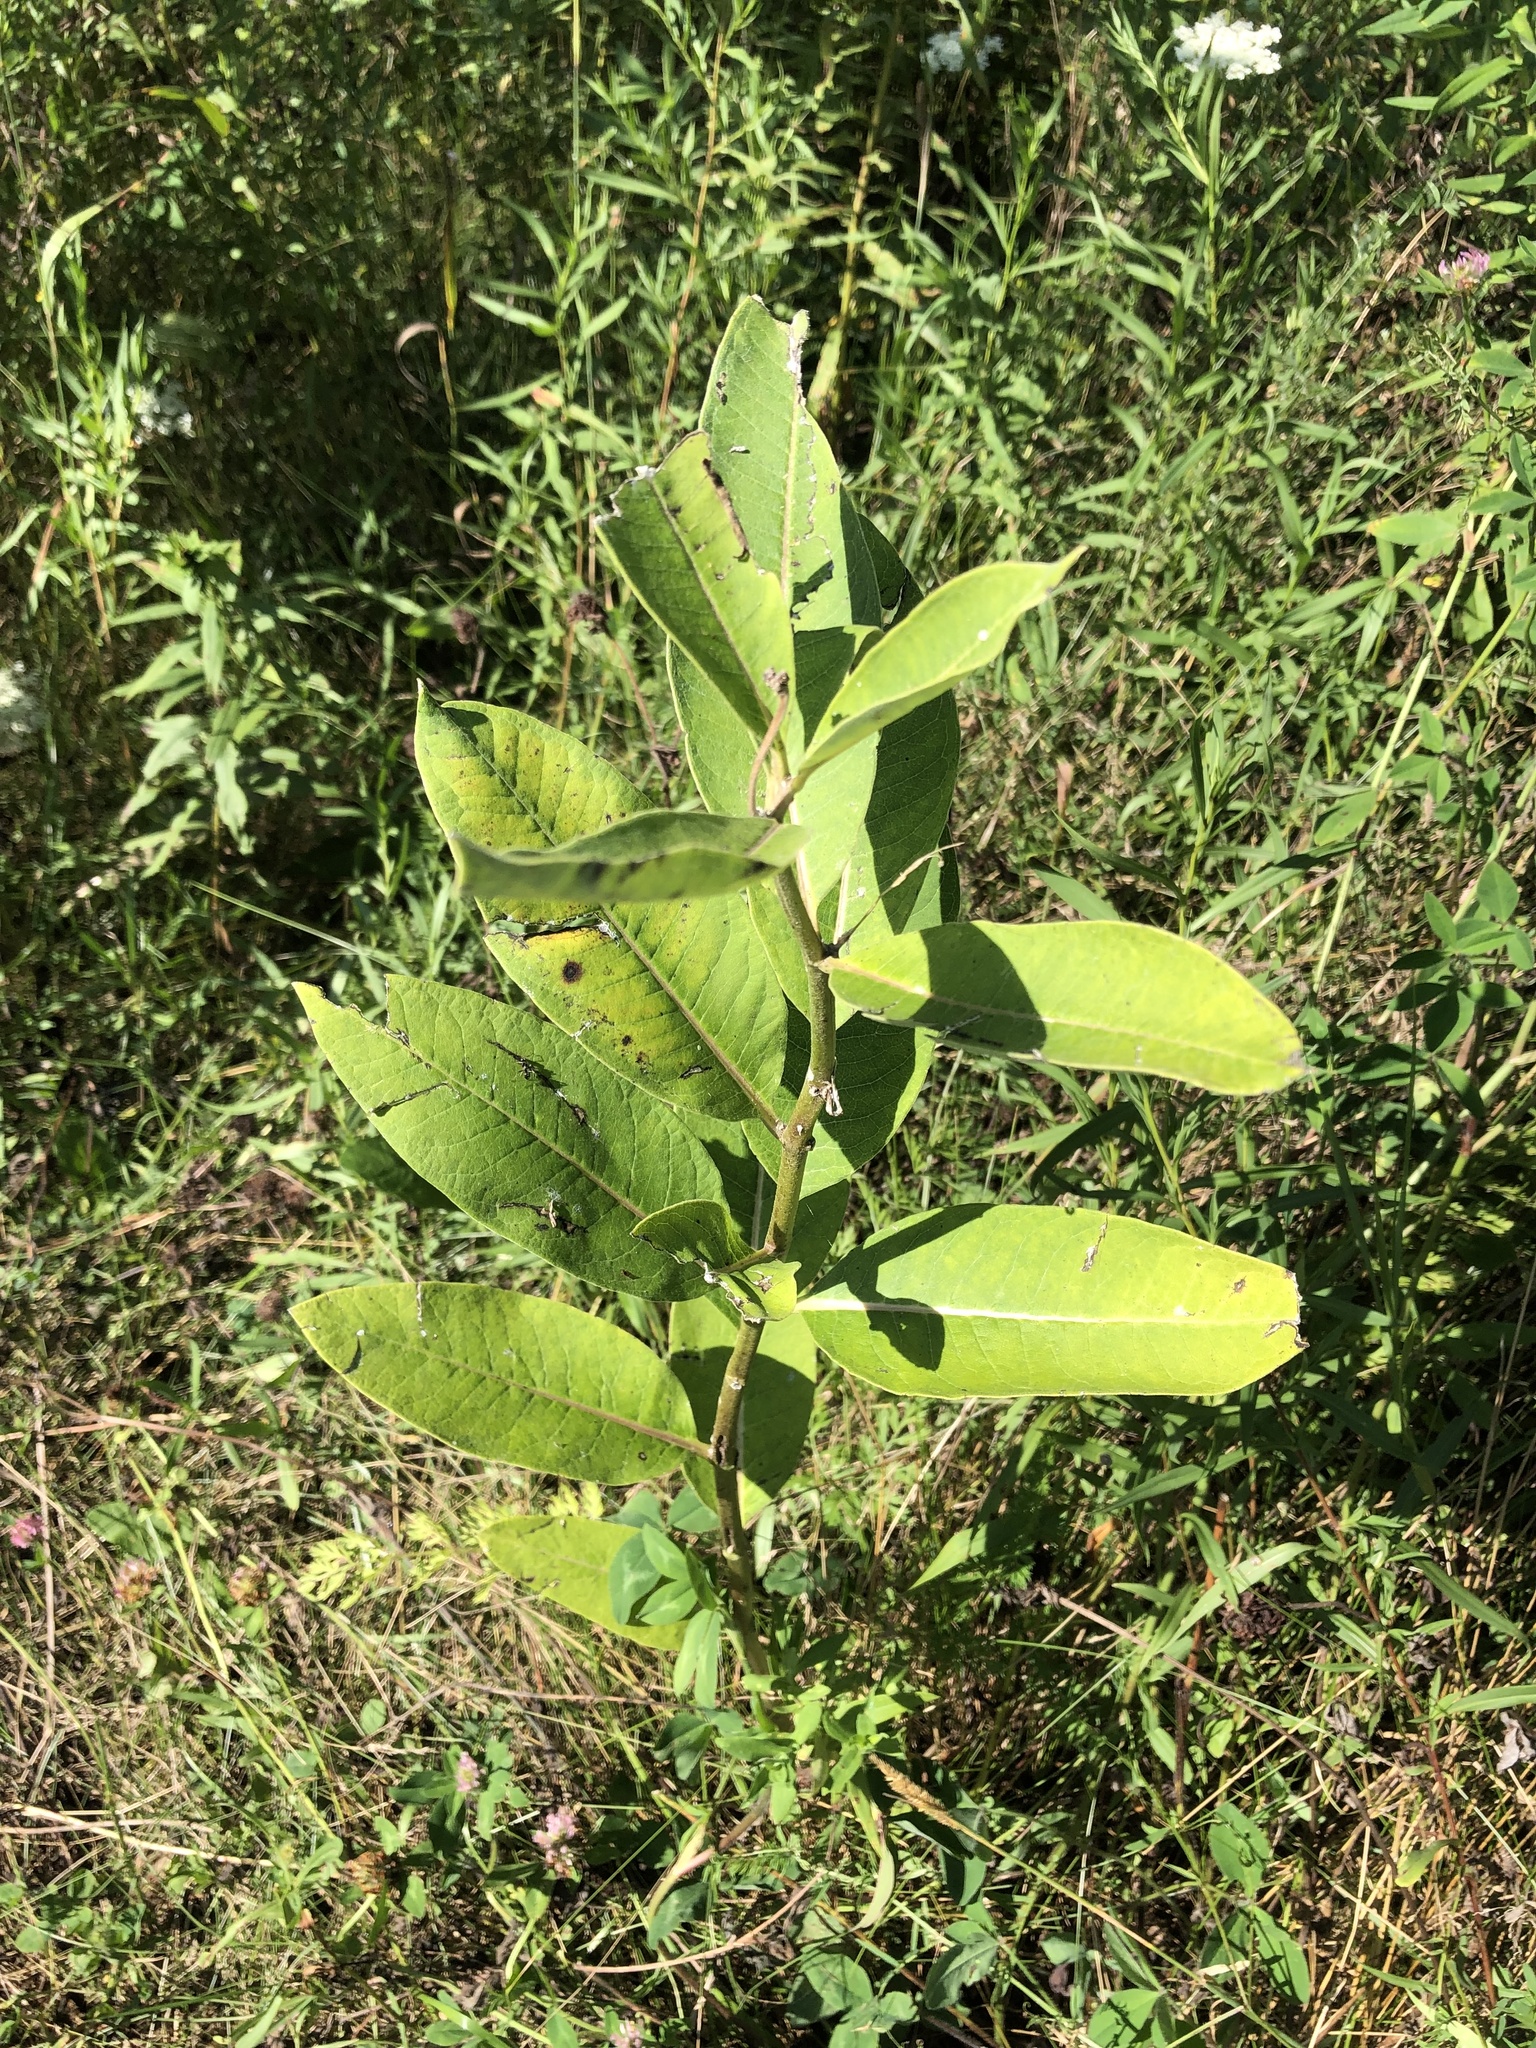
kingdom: Plantae
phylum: Tracheophyta
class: Magnoliopsida
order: Gentianales
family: Apocynaceae
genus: Asclepias
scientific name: Asclepias syriaca
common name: Common milkweed
